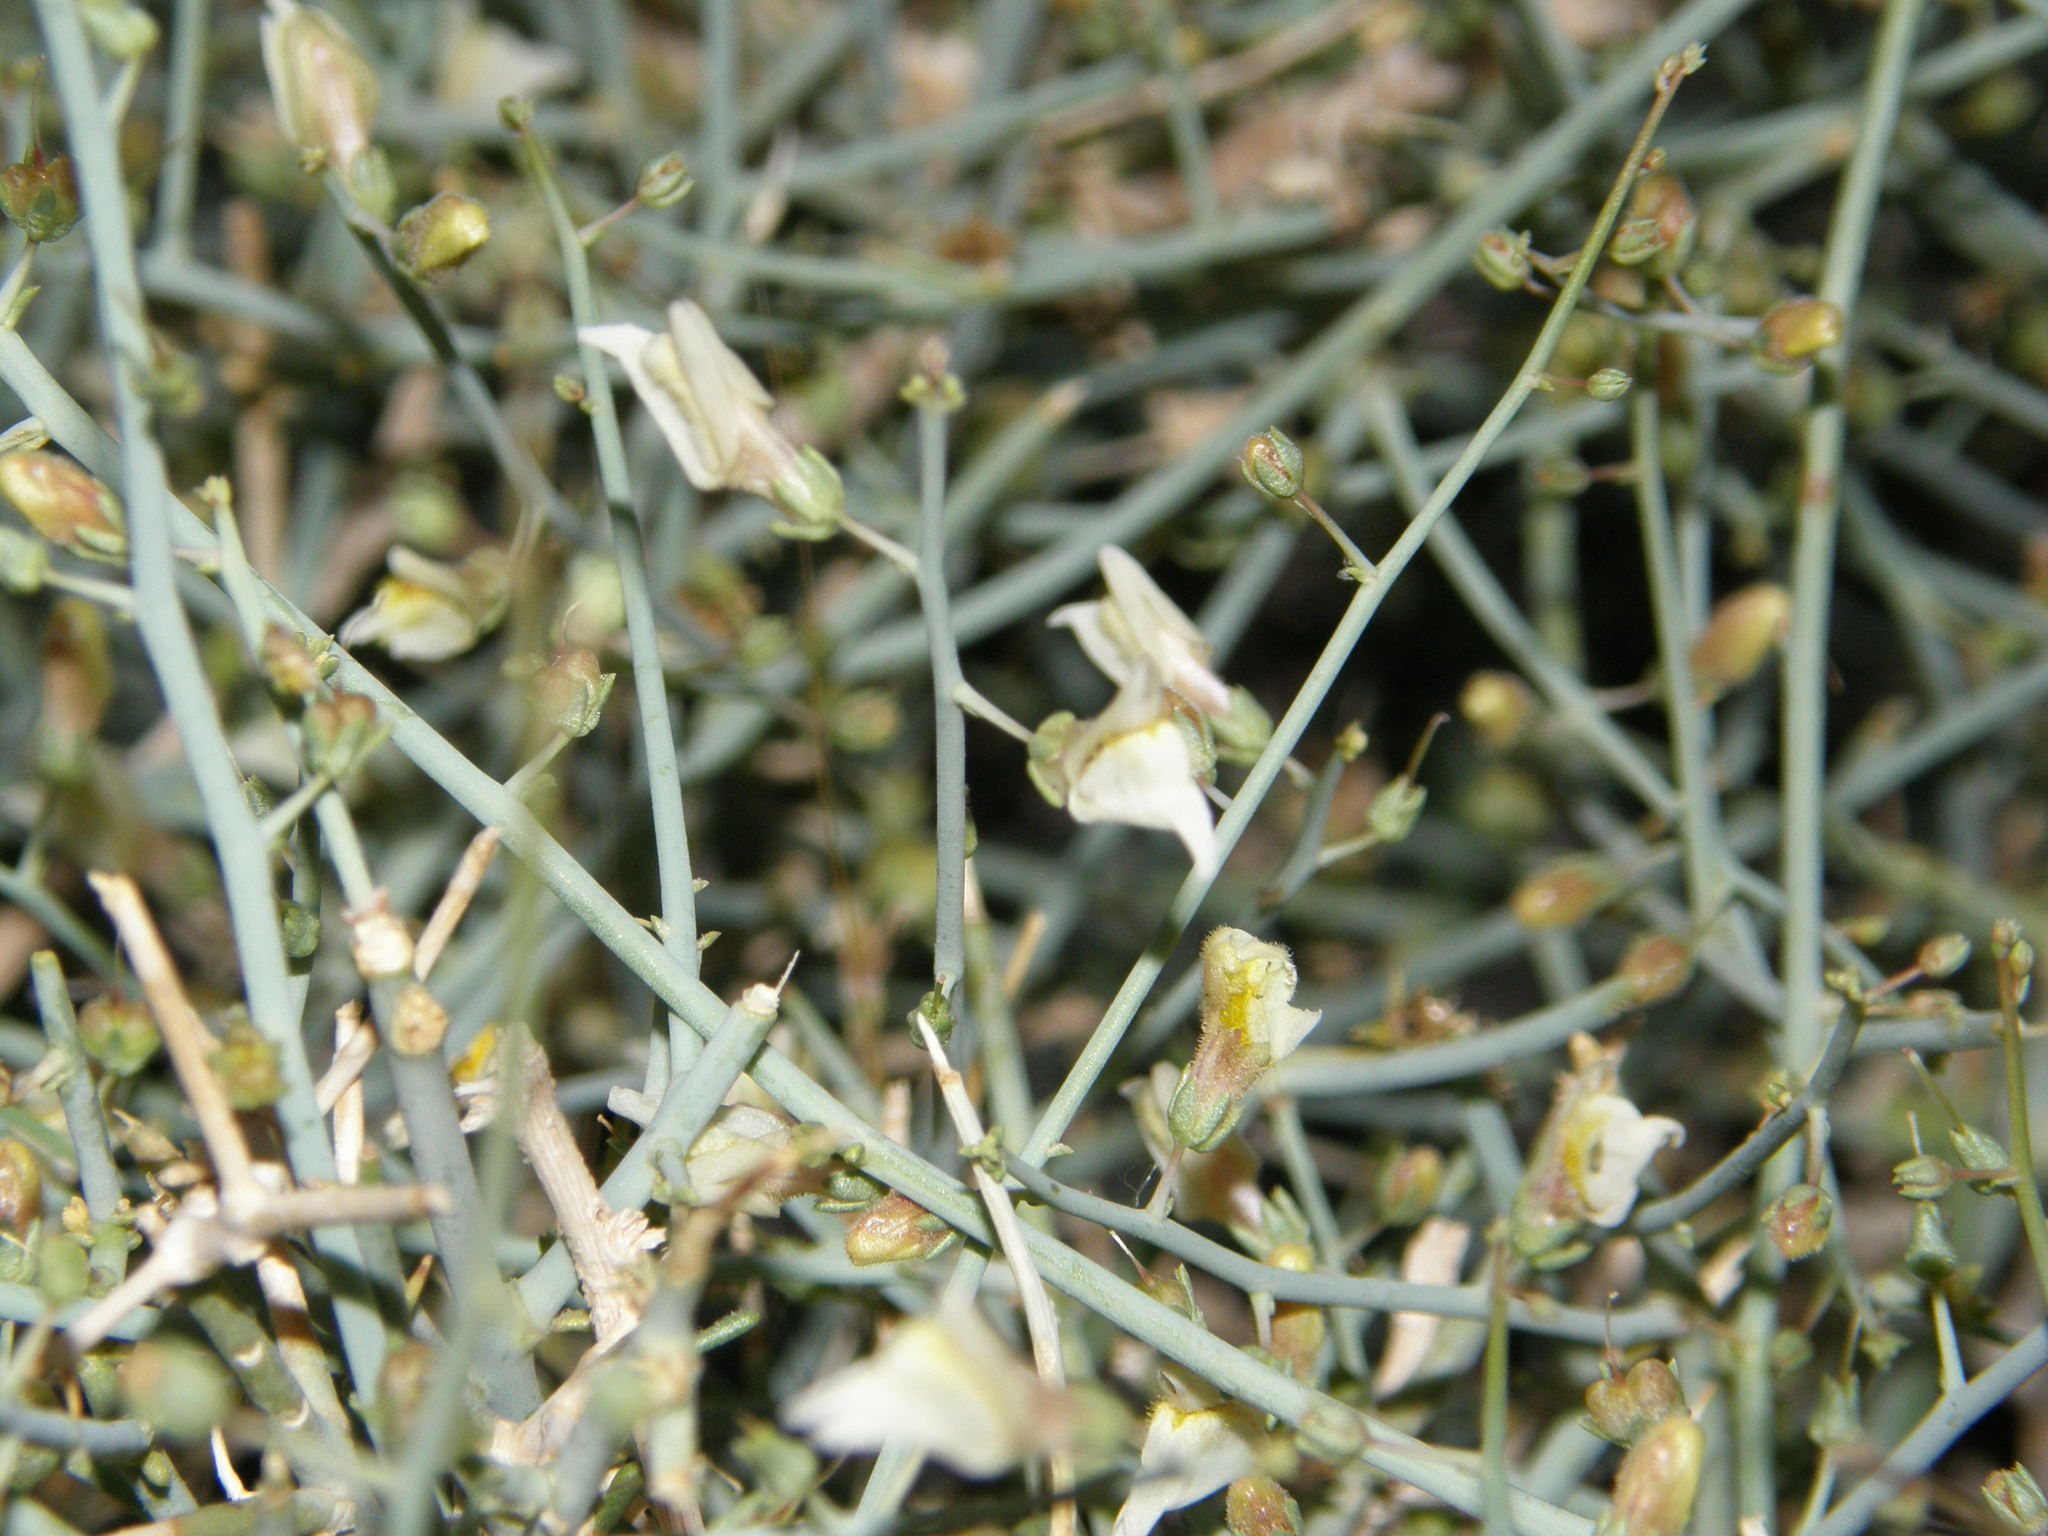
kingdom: Plantae
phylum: Tracheophyta
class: Magnoliopsida
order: Lamiales
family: Plantaginaceae
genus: Acanthorrhinum
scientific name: Acanthorrhinum ramosissimum
